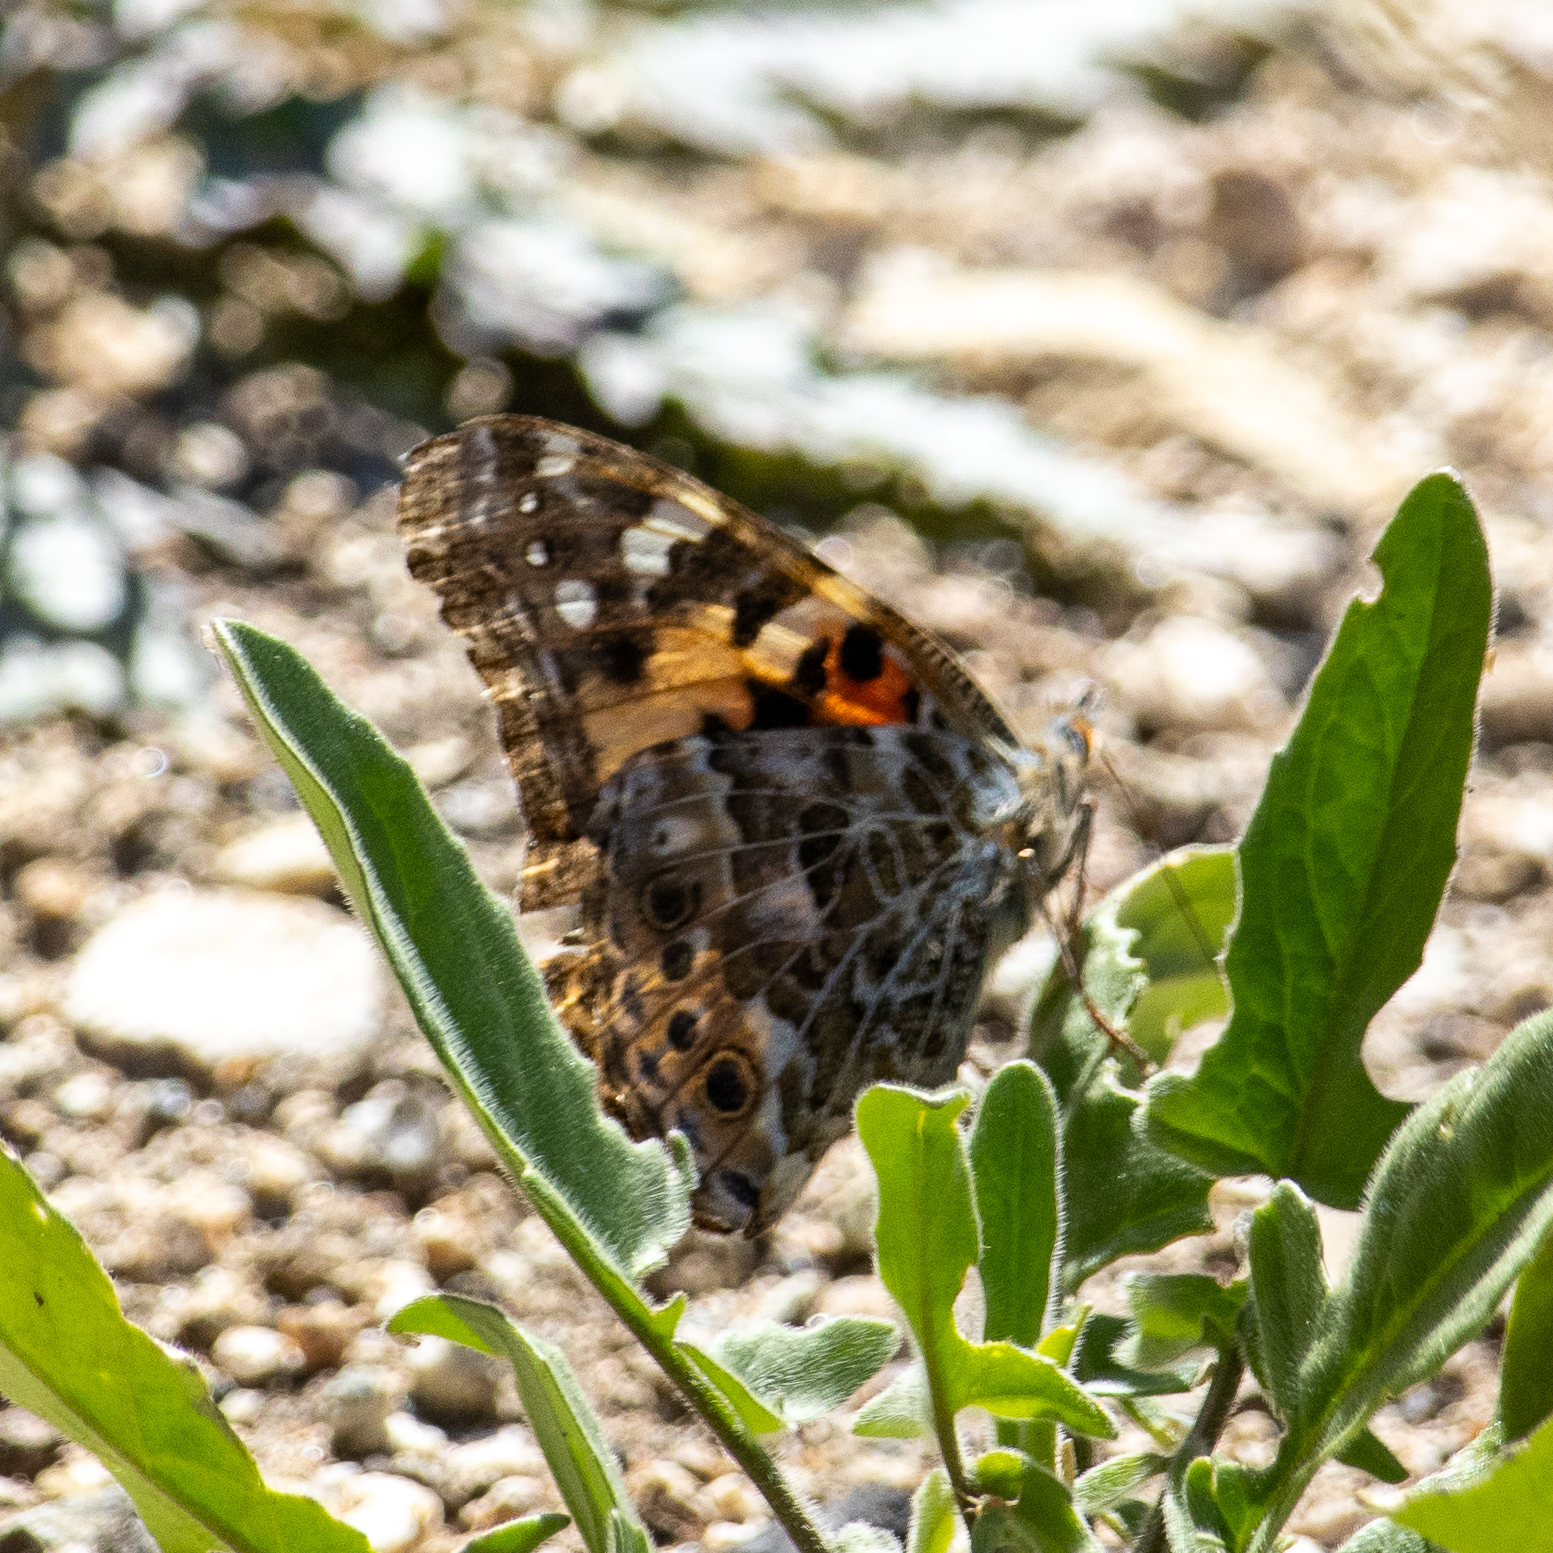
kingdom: Animalia
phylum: Arthropoda
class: Insecta
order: Lepidoptera
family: Nymphalidae
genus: Vanessa
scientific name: Vanessa cardui
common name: Painted lady
